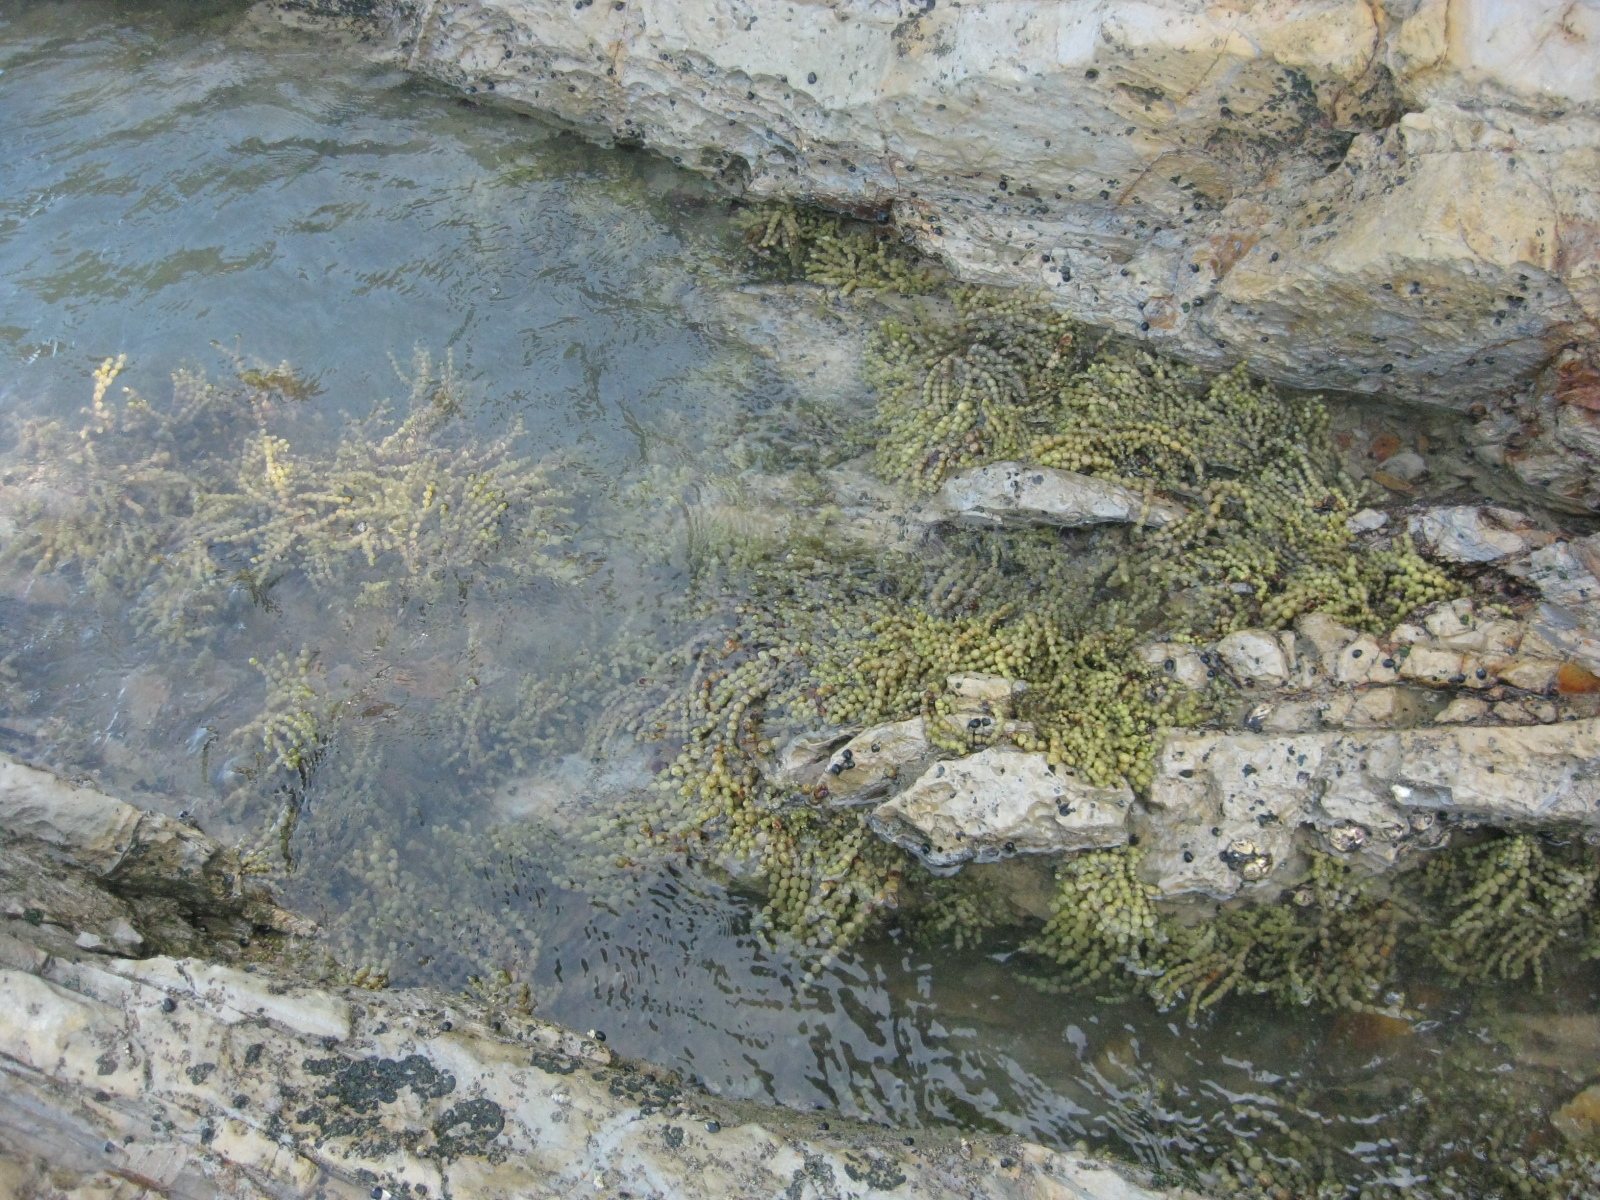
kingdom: Chromista
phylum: Ochrophyta
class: Phaeophyceae
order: Fucales
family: Hormosiraceae
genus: Hormosira
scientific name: Hormosira banksii
